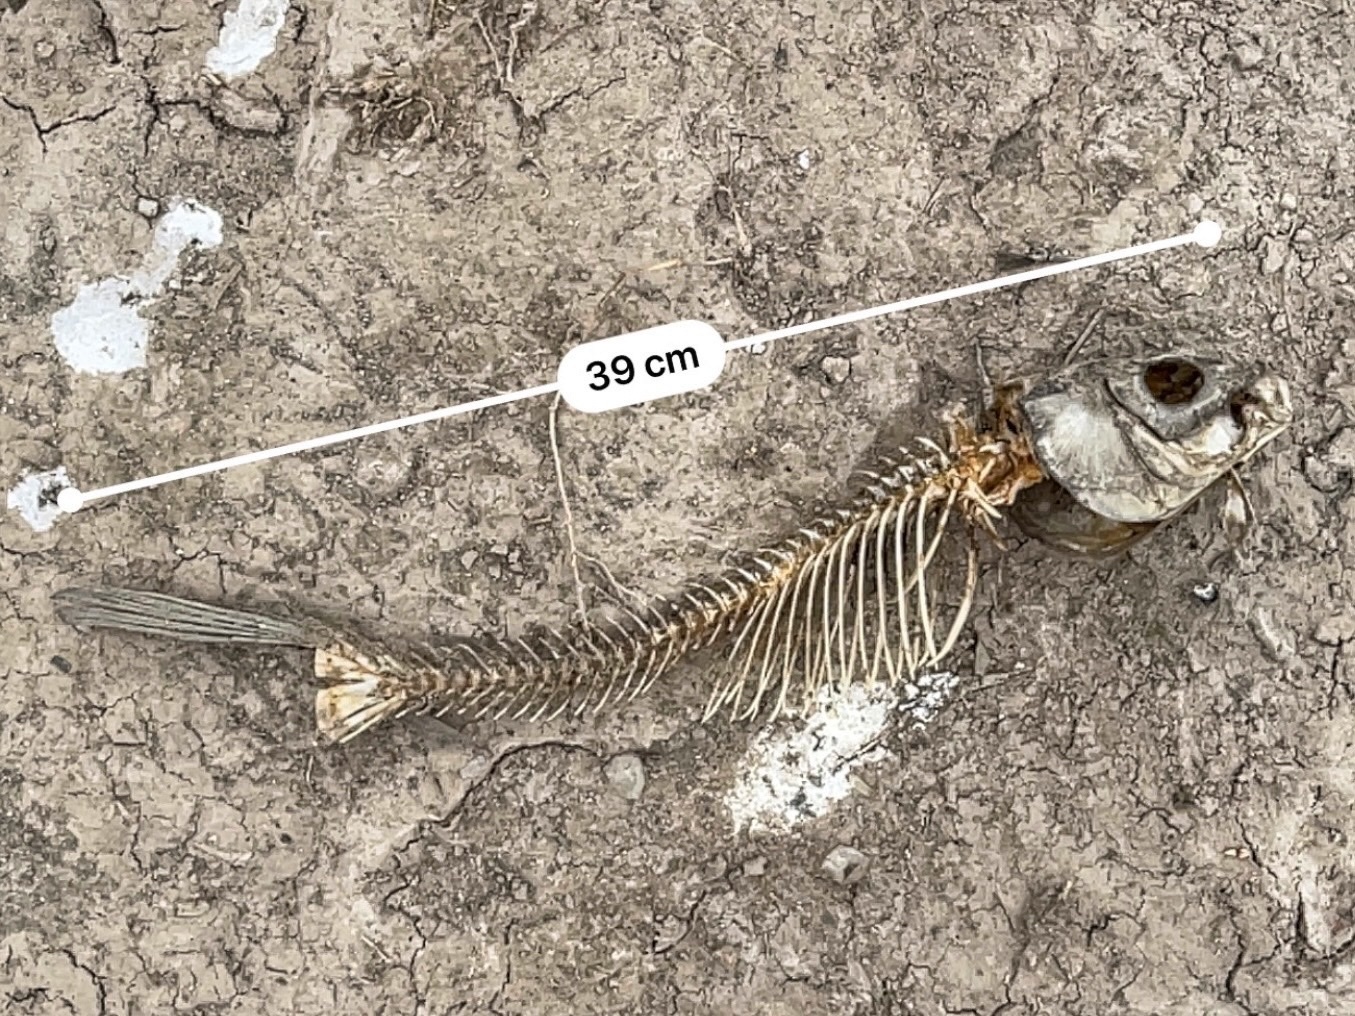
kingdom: Animalia
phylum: Chordata
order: Cypriniformes
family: Cyprinidae
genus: Cyprinus
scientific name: Cyprinus carpio
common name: Common carp
